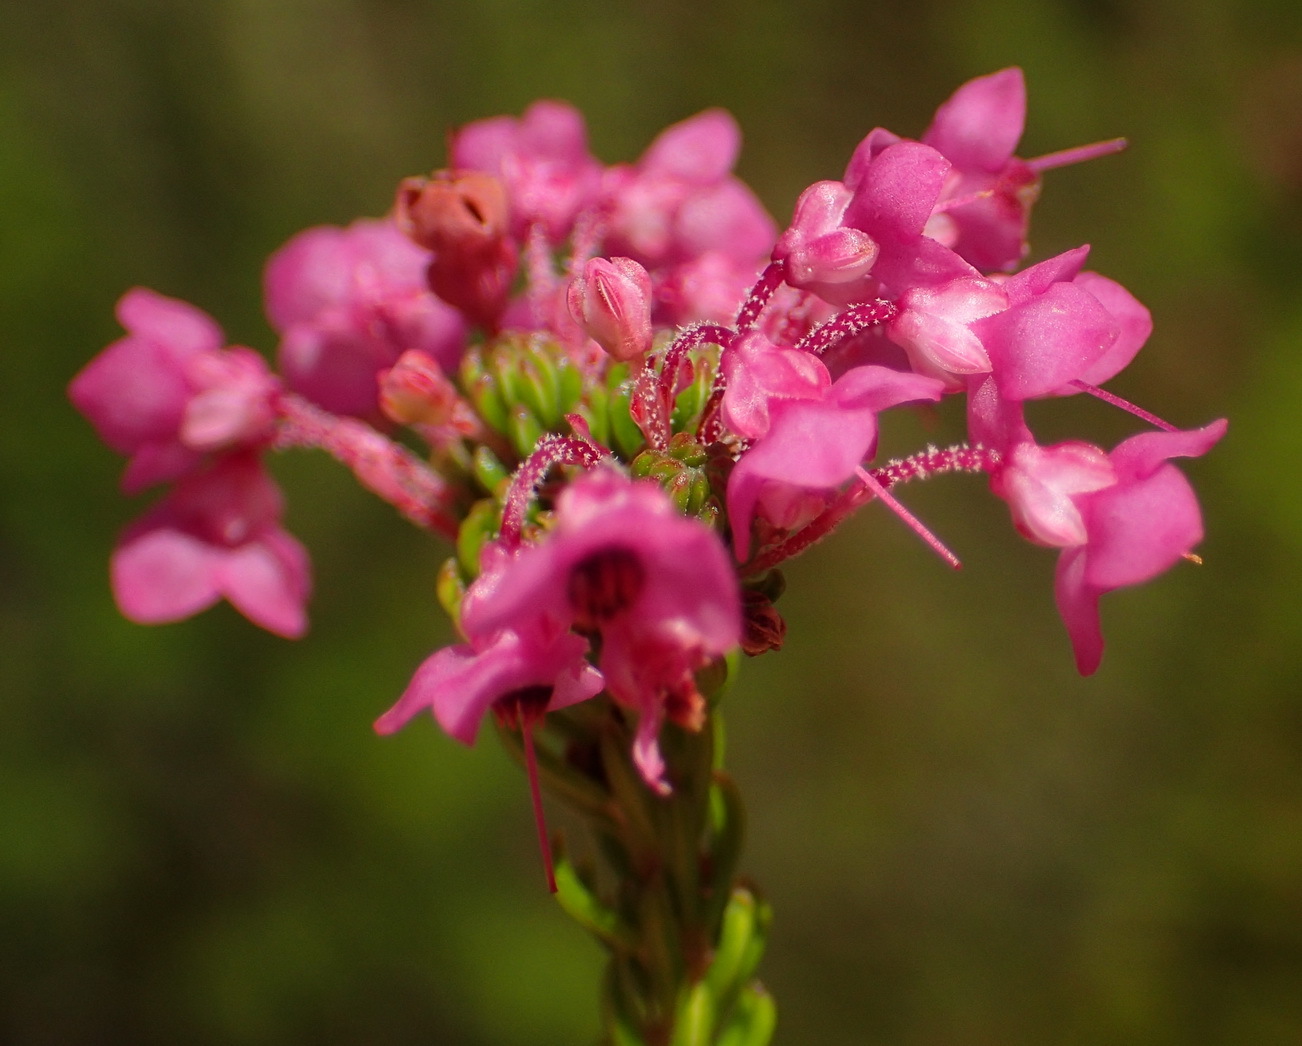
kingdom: Plantae
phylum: Tracheophyta
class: Magnoliopsida
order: Ericales
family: Ericaceae
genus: Erica
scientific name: Erica seriphiifolia
